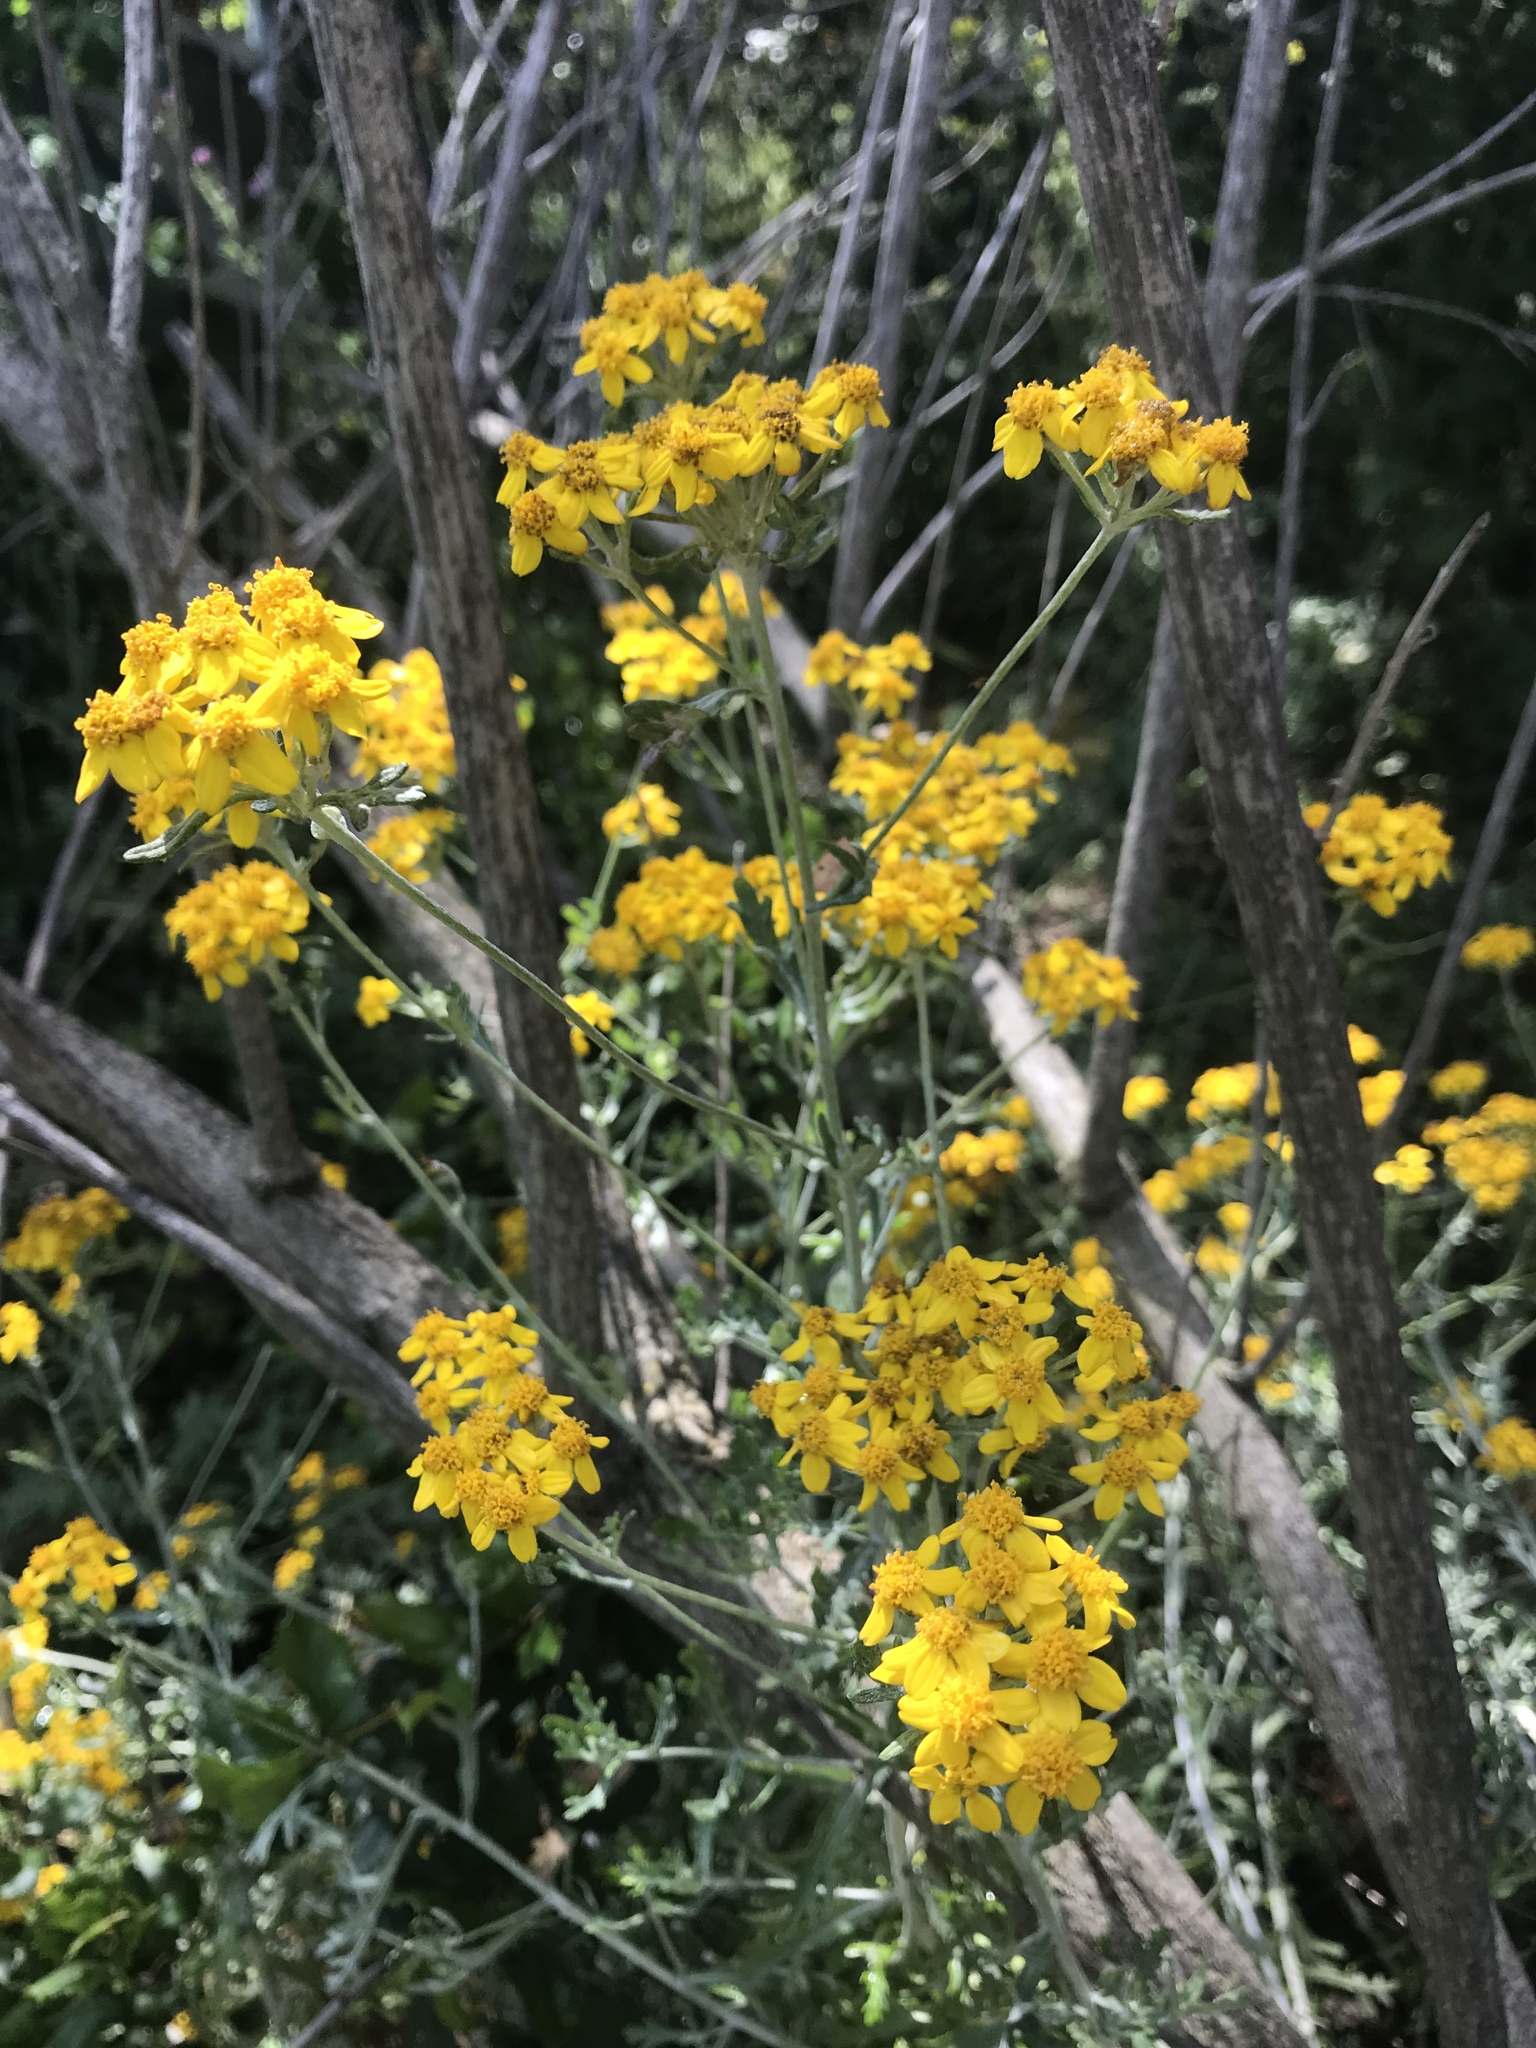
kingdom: Plantae
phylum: Tracheophyta
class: Magnoliopsida
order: Asterales
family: Asteraceae
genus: Eriophyllum
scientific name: Eriophyllum confertiflorum
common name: Golden-yarrow
